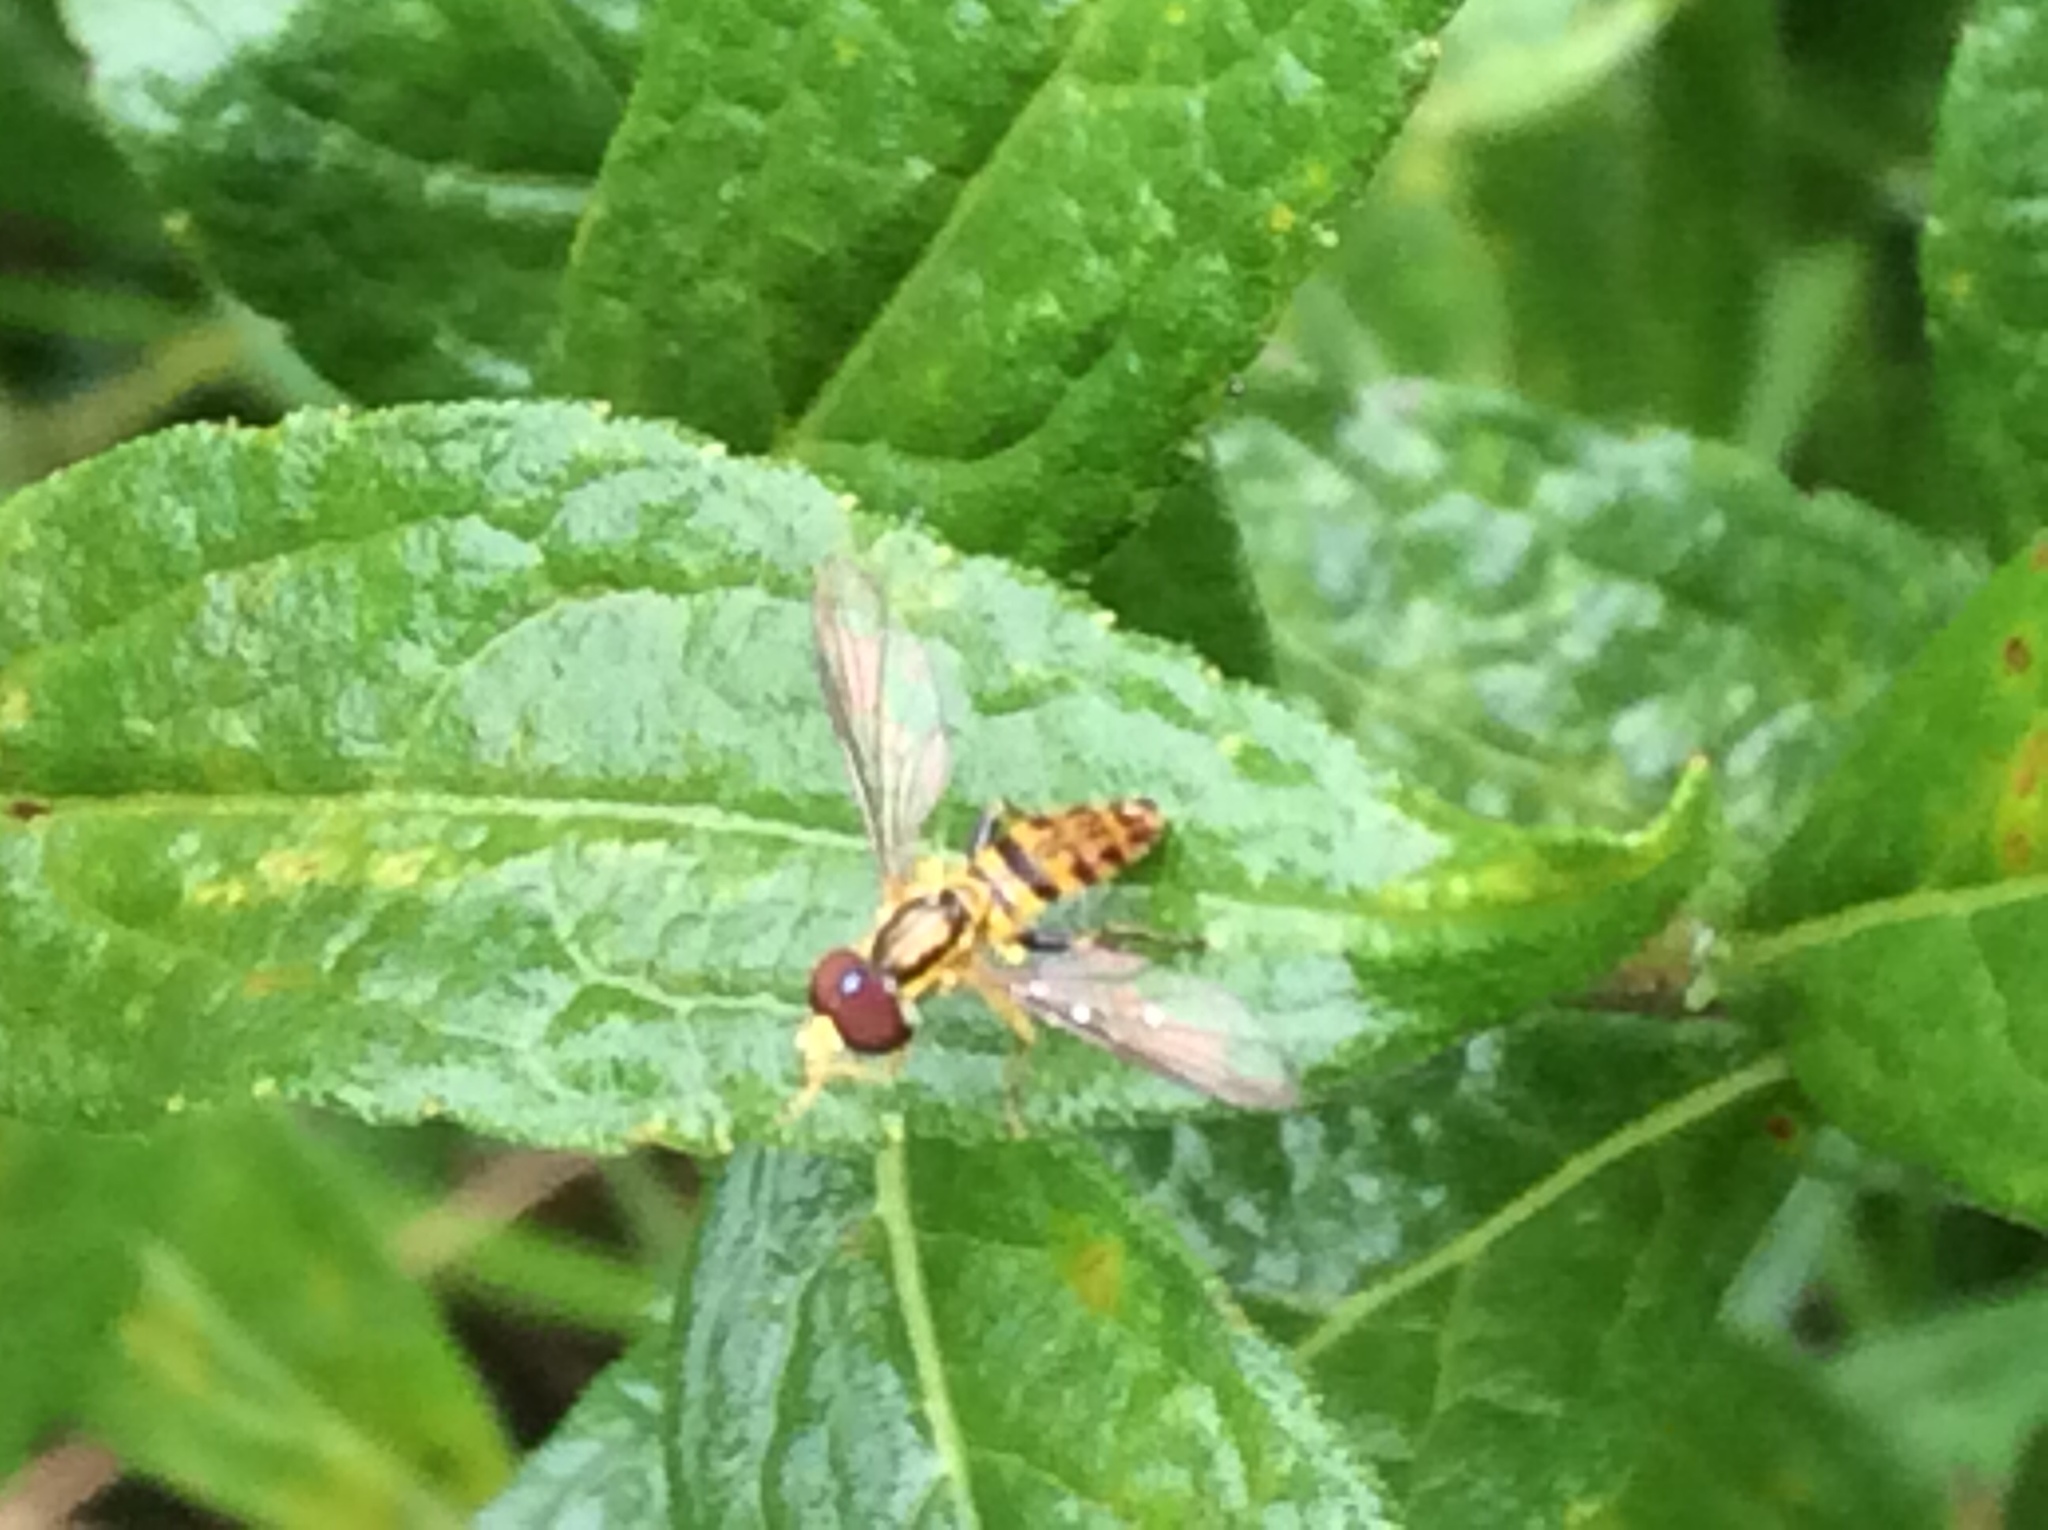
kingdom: Animalia
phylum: Arthropoda
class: Insecta
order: Diptera
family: Syrphidae
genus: Toxomerus
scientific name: Toxomerus geminatus
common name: Eastern calligrapher
